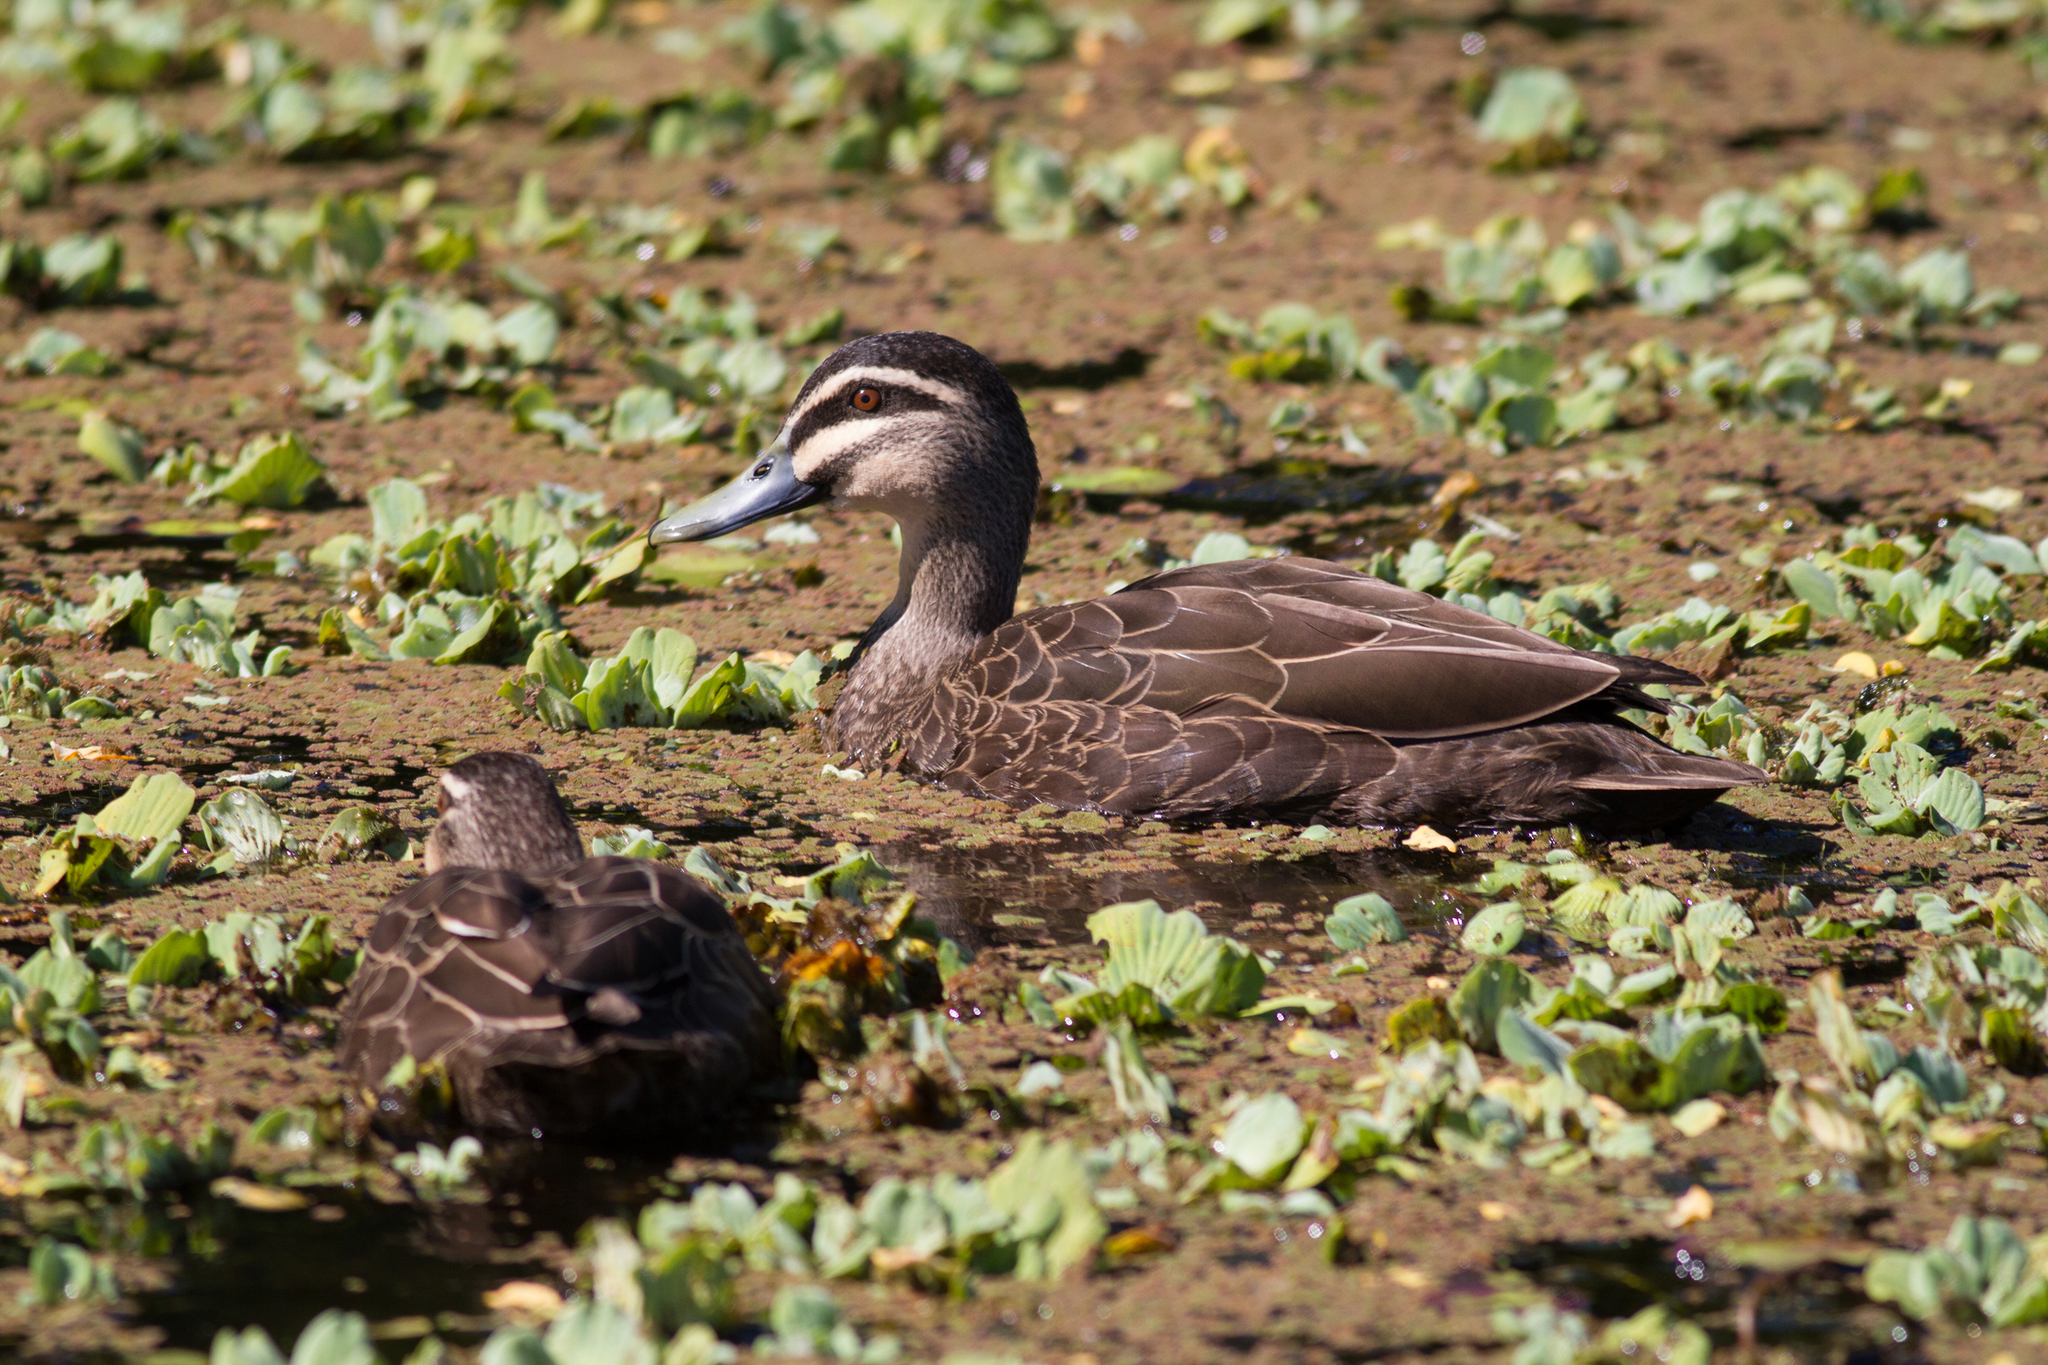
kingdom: Animalia
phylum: Chordata
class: Aves
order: Anseriformes
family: Anatidae
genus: Anas
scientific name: Anas superciliosa
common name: Pacific black duck
